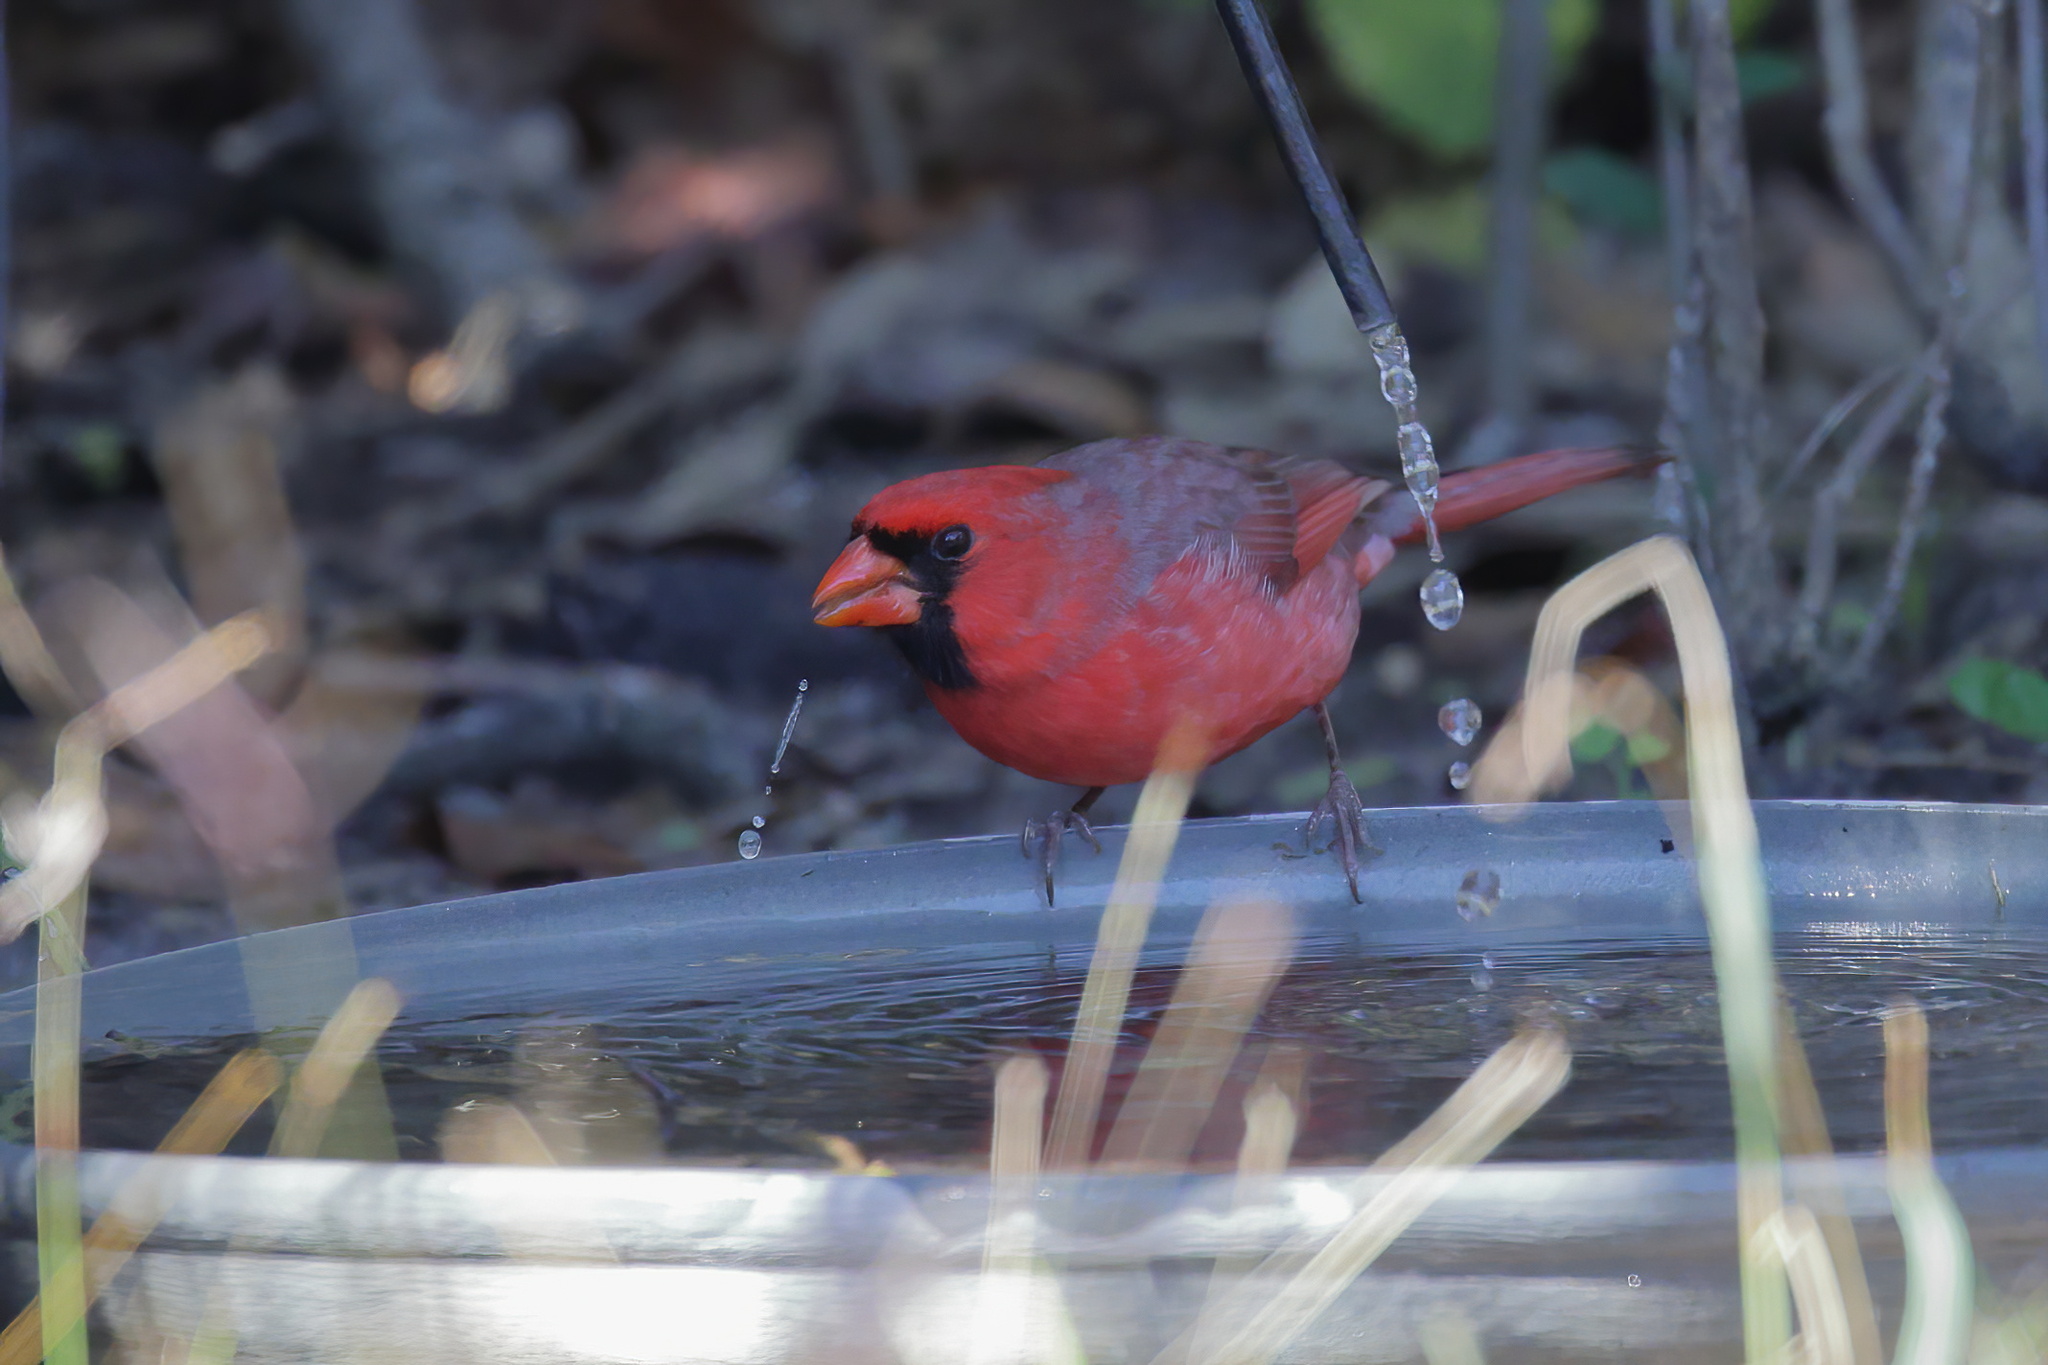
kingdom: Animalia
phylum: Chordata
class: Aves
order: Passeriformes
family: Cardinalidae
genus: Cardinalis
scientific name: Cardinalis cardinalis
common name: Northern cardinal
